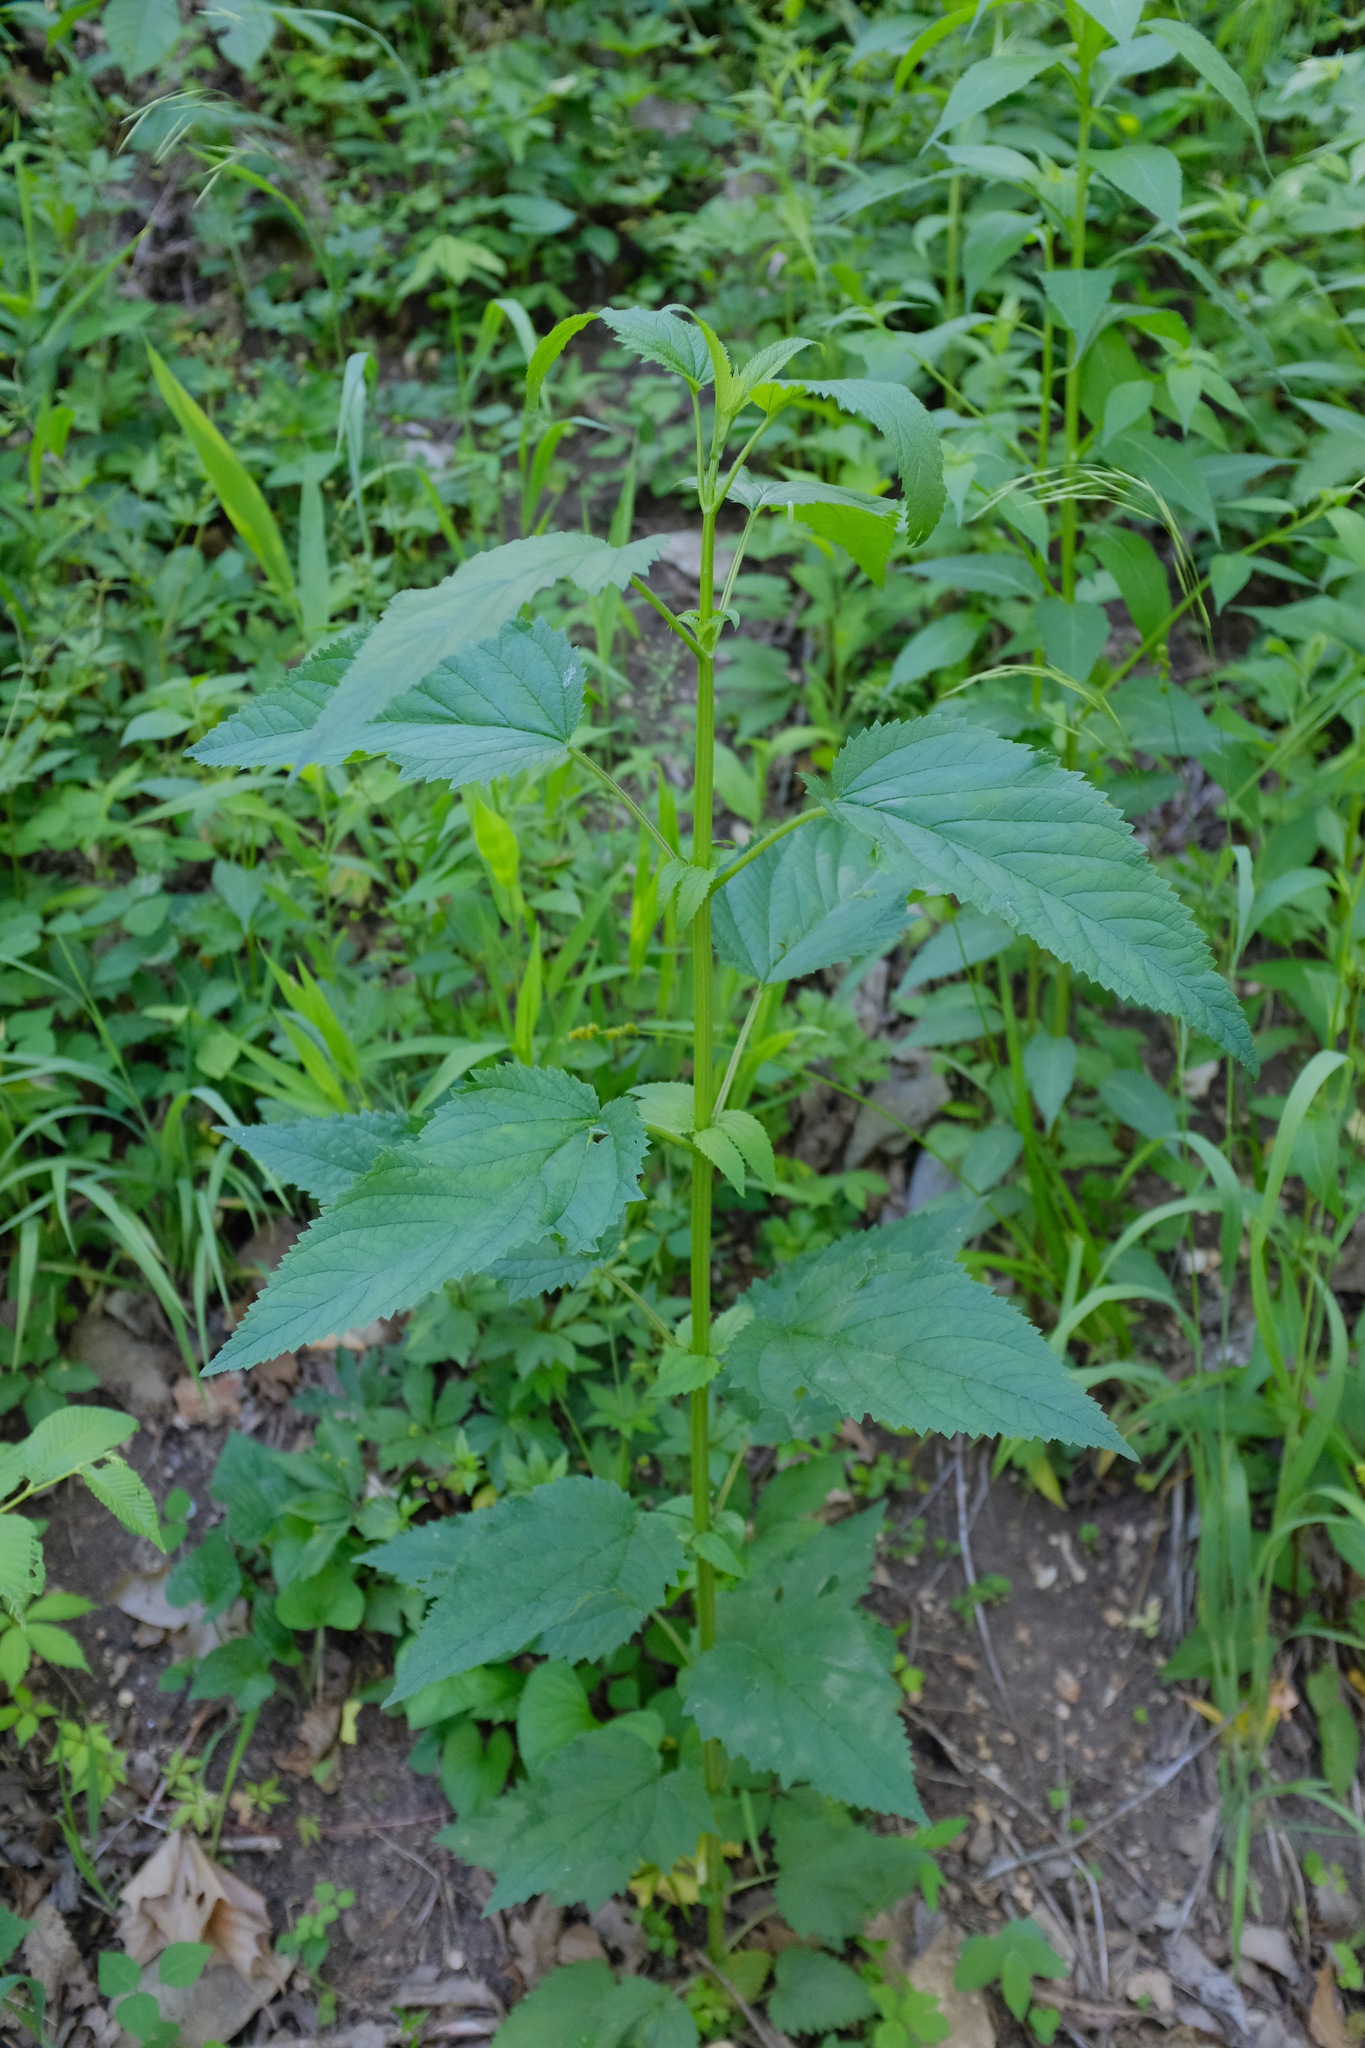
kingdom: Plantae
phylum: Tracheophyta
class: Magnoliopsida
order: Lamiales
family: Scrophulariaceae
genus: Scrophularia
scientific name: Scrophularia marilandica
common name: Eastern figwort
